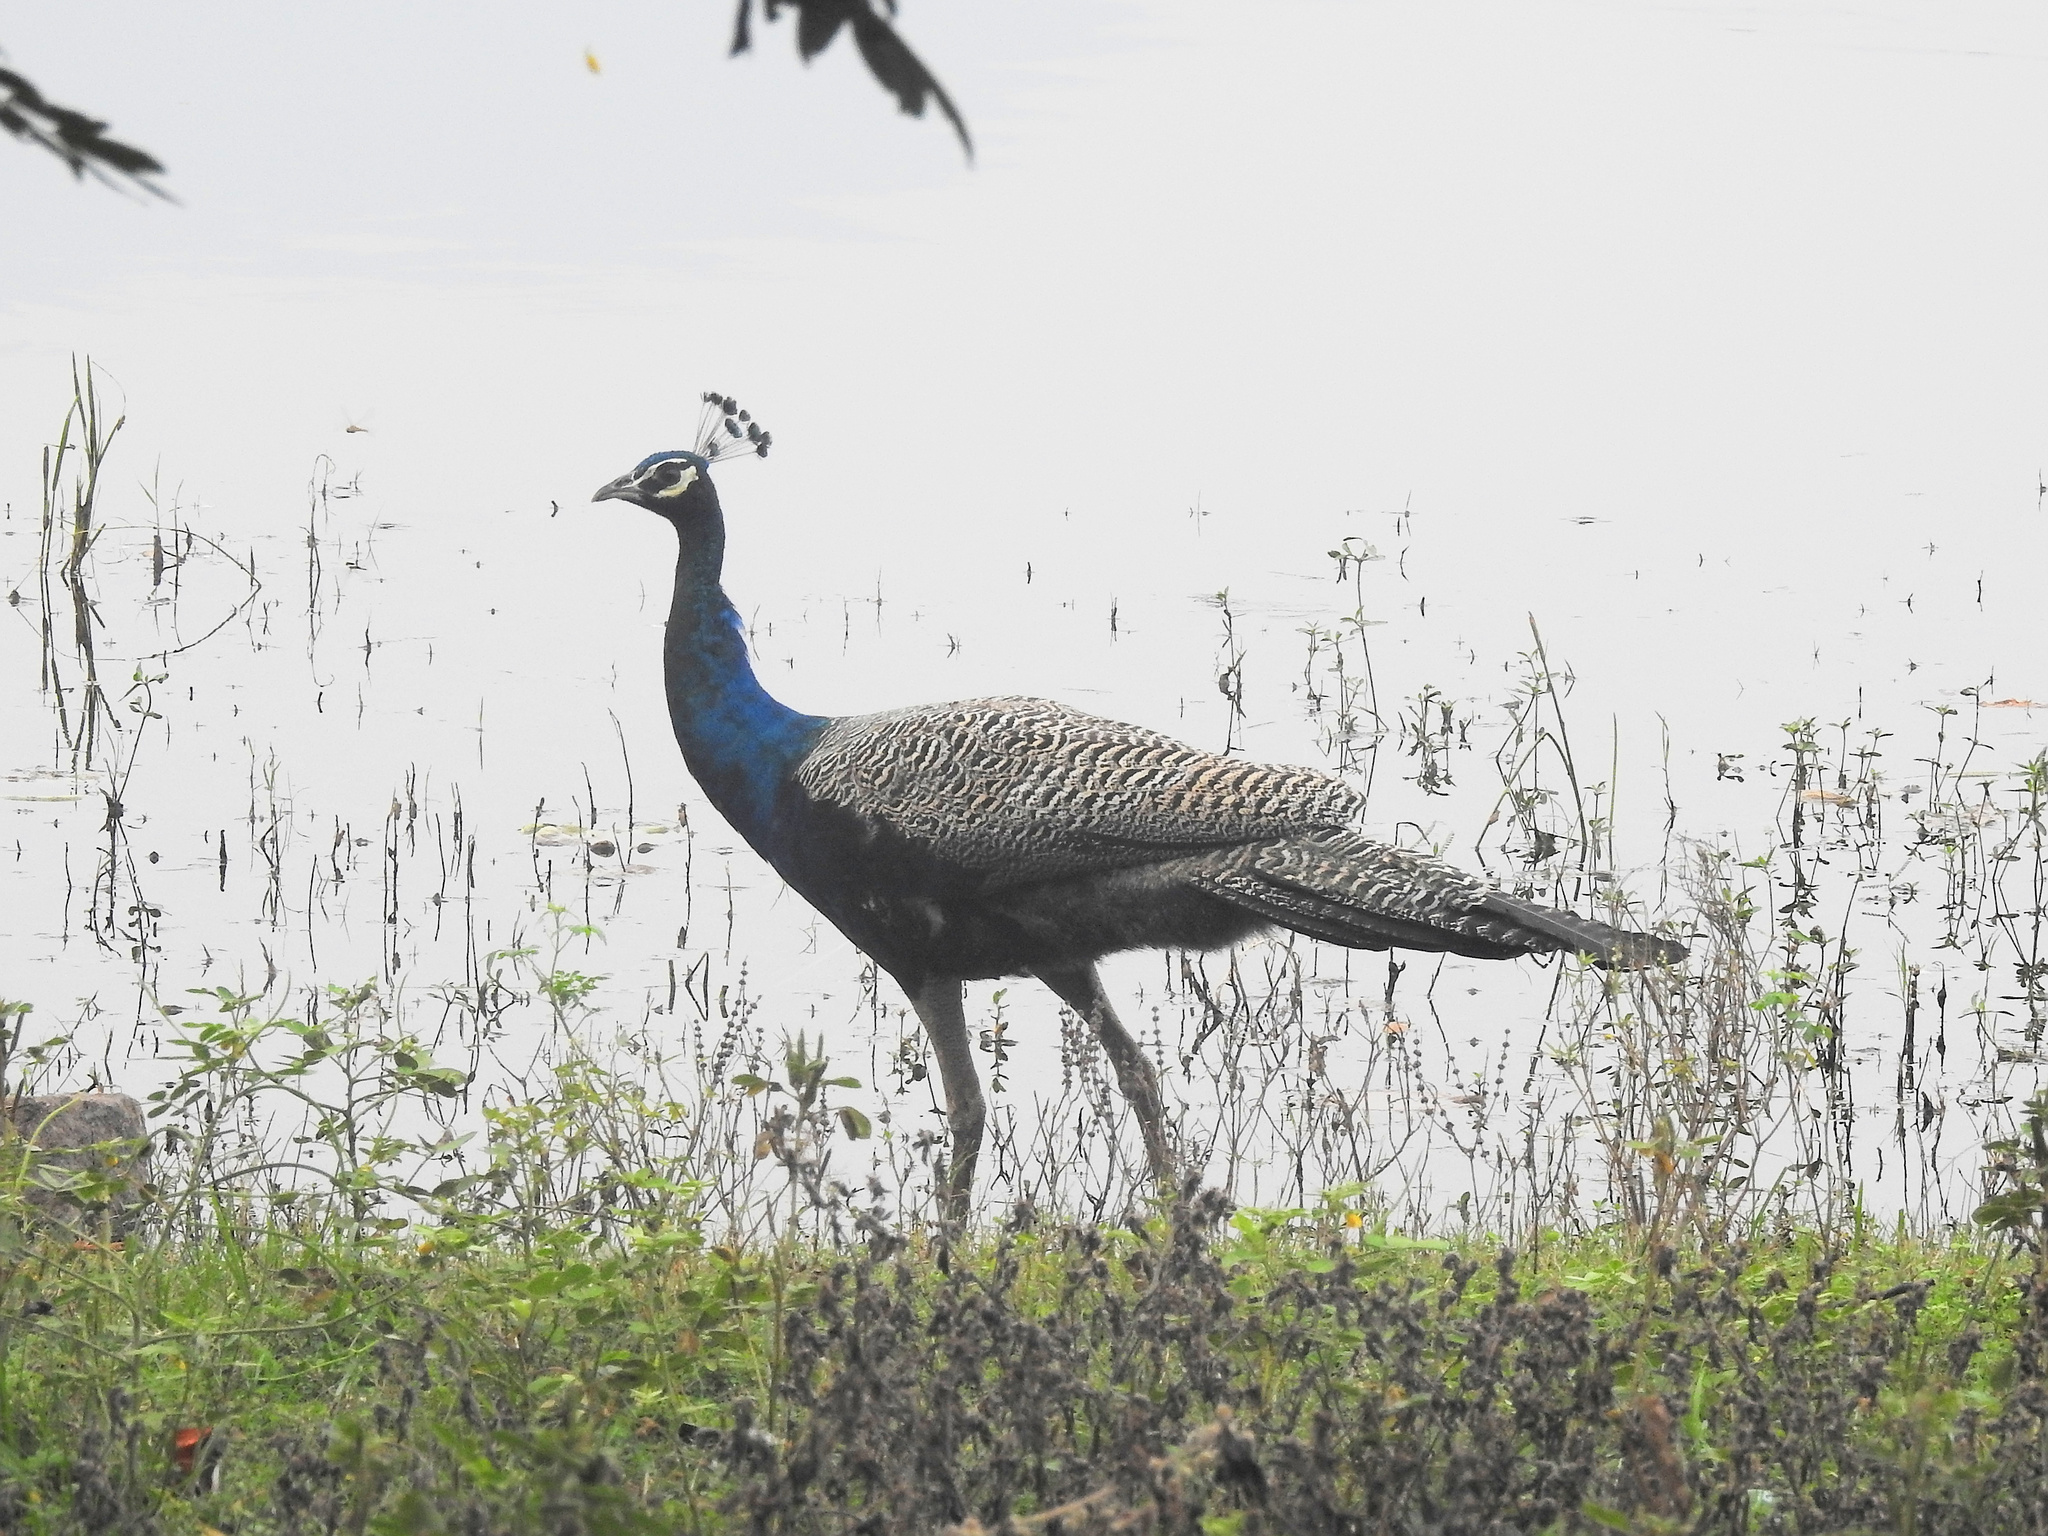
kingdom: Animalia
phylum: Chordata
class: Aves
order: Galliformes
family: Phasianidae
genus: Pavo
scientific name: Pavo cristatus
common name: Indian peafowl
